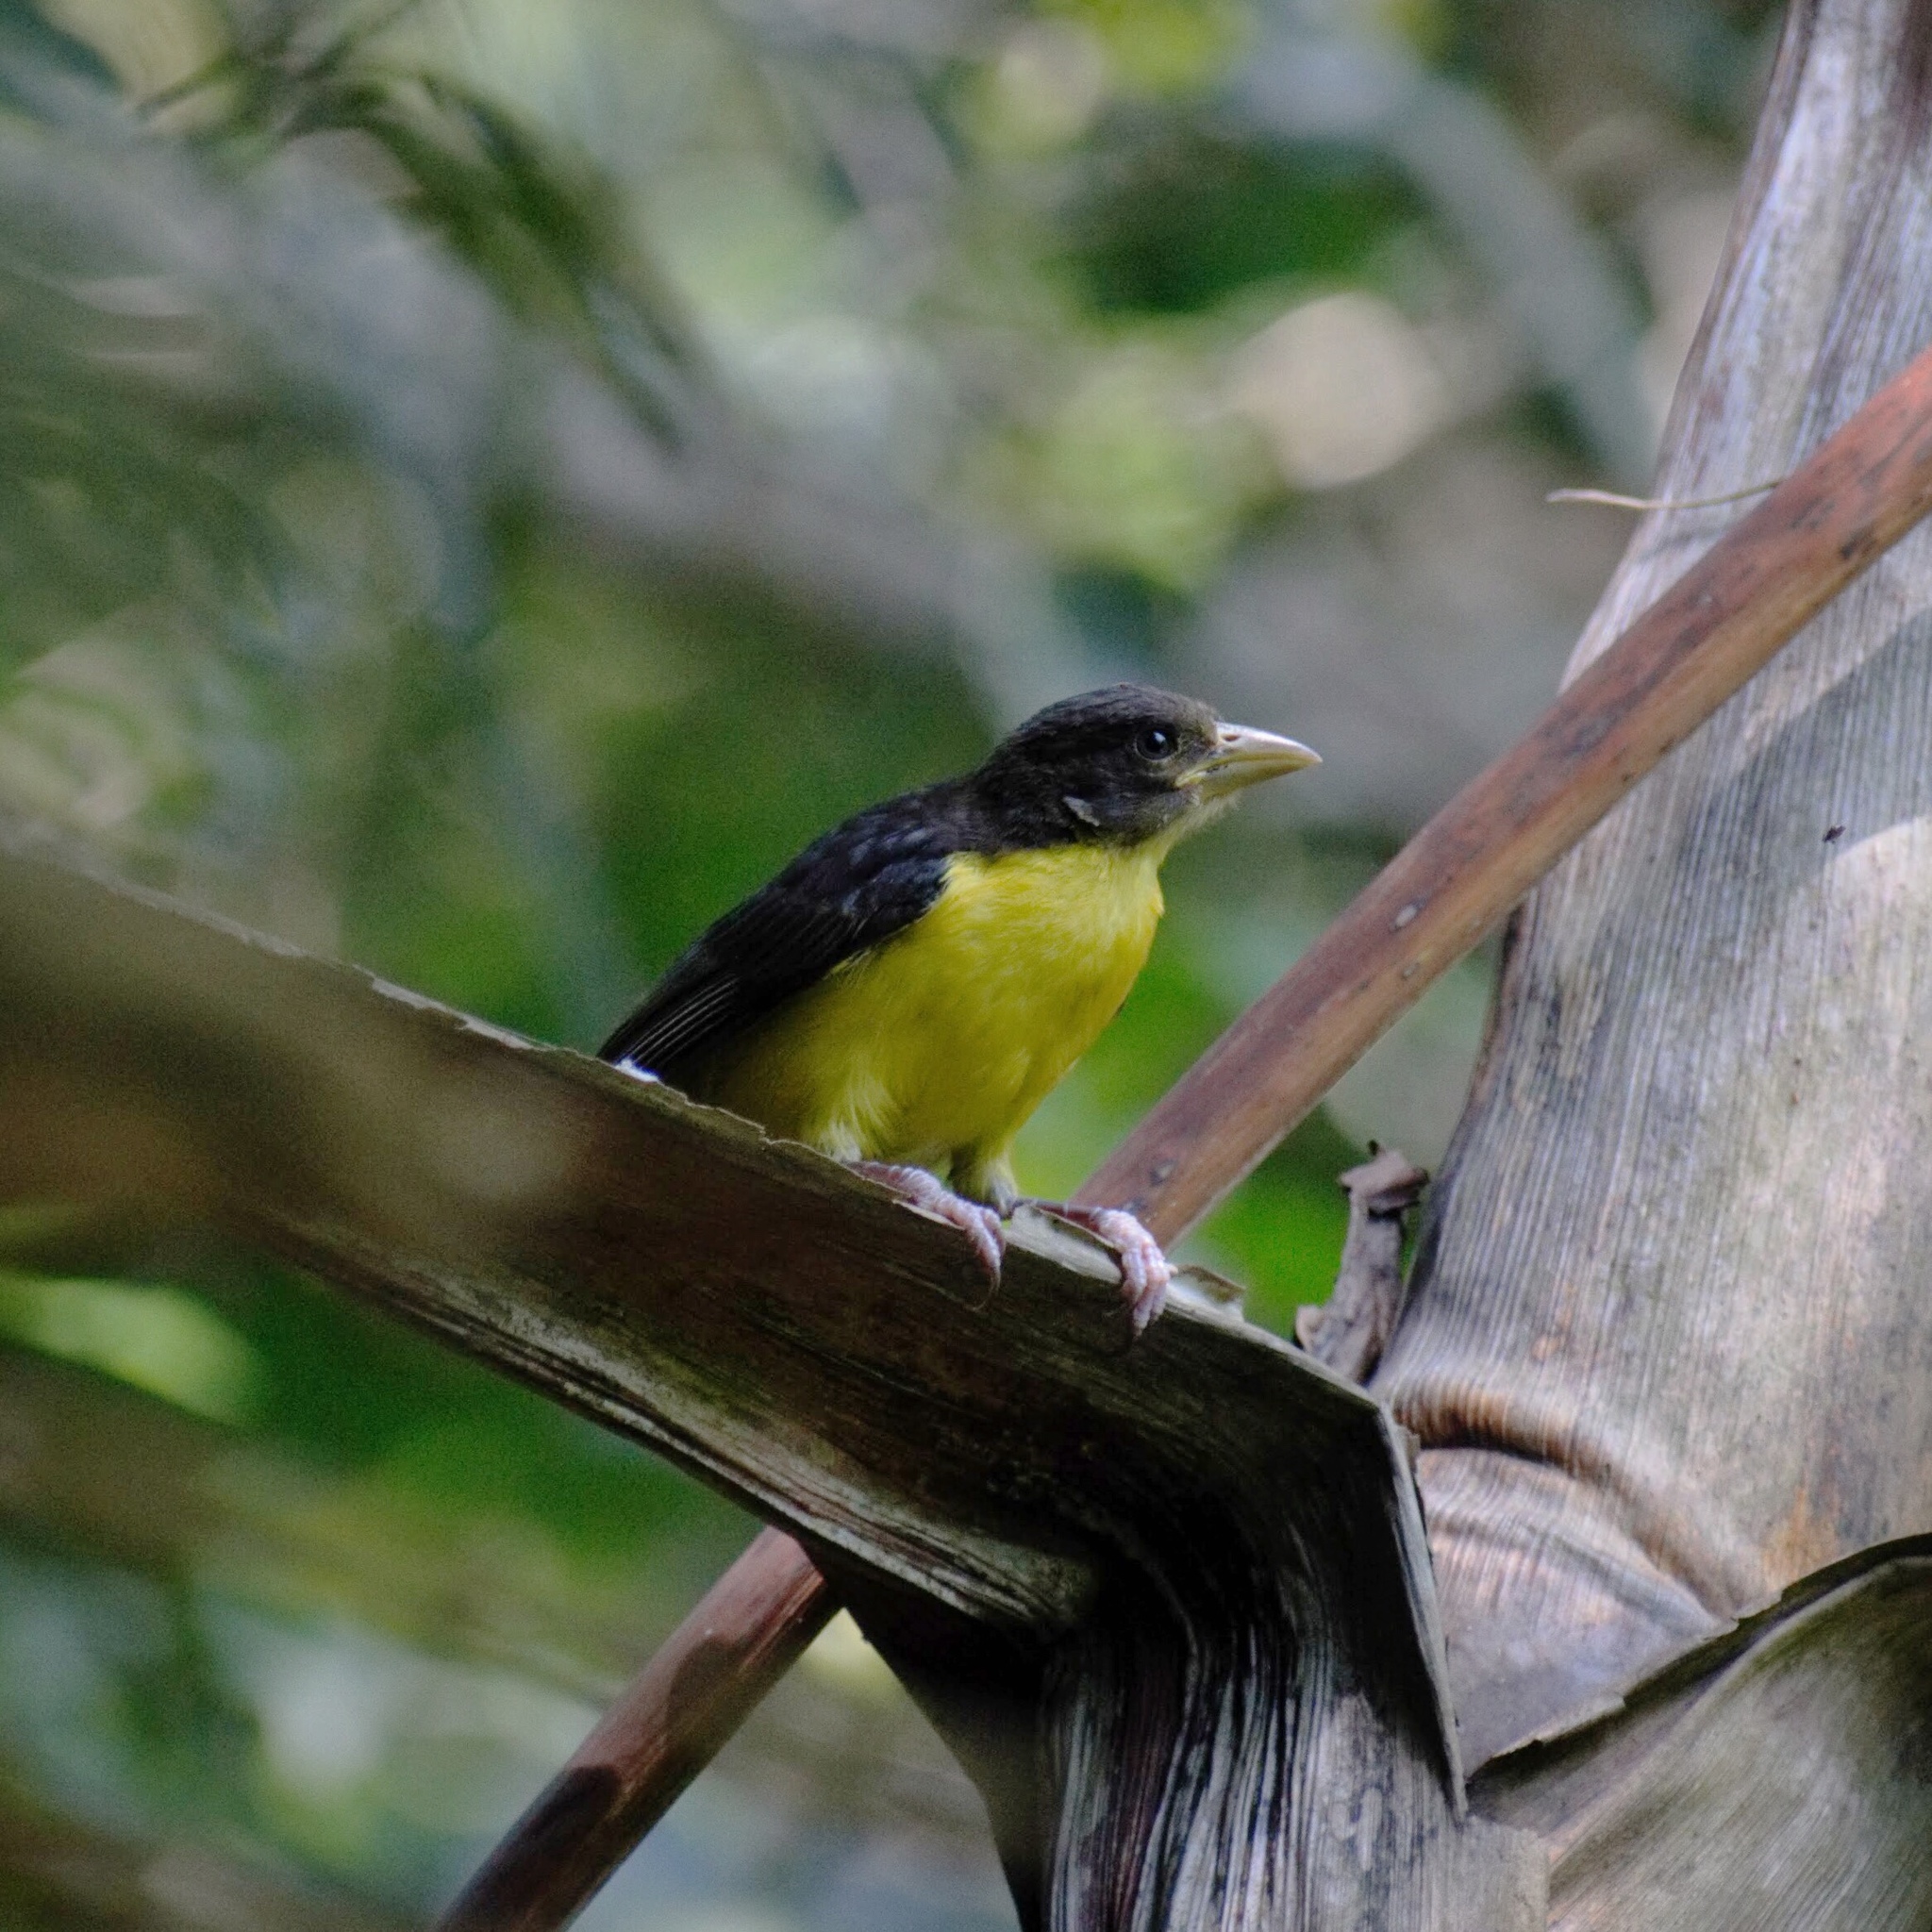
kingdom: Animalia
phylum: Chordata
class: Aves
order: Passeriformes
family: Ploceidae
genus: Ploceus
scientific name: Ploceus bicolor
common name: Dark-backed weaver
